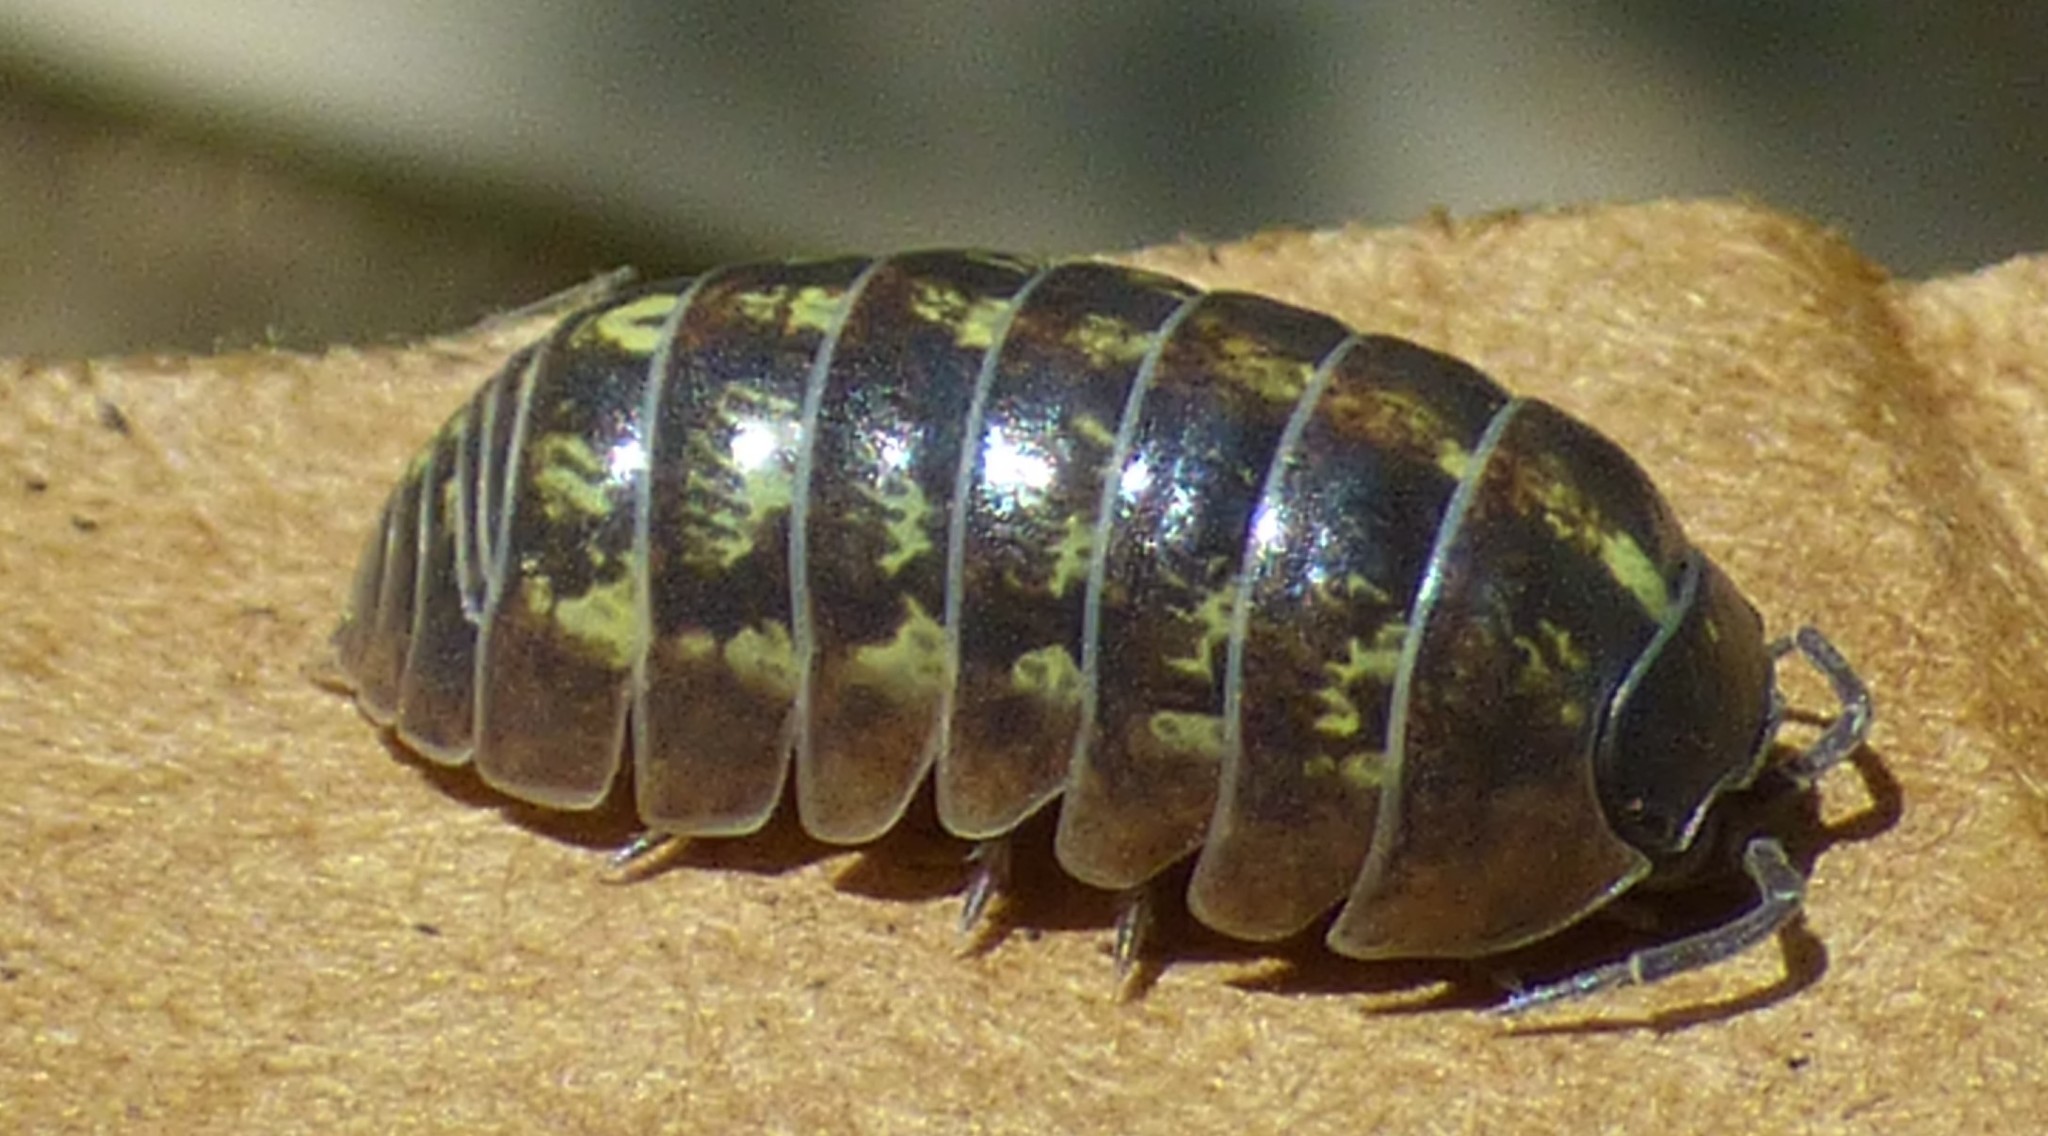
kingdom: Animalia
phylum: Arthropoda
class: Malacostraca
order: Isopoda
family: Armadillidiidae
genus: Armadillidium
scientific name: Armadillidium vulgare
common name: Common pill woodlouse
